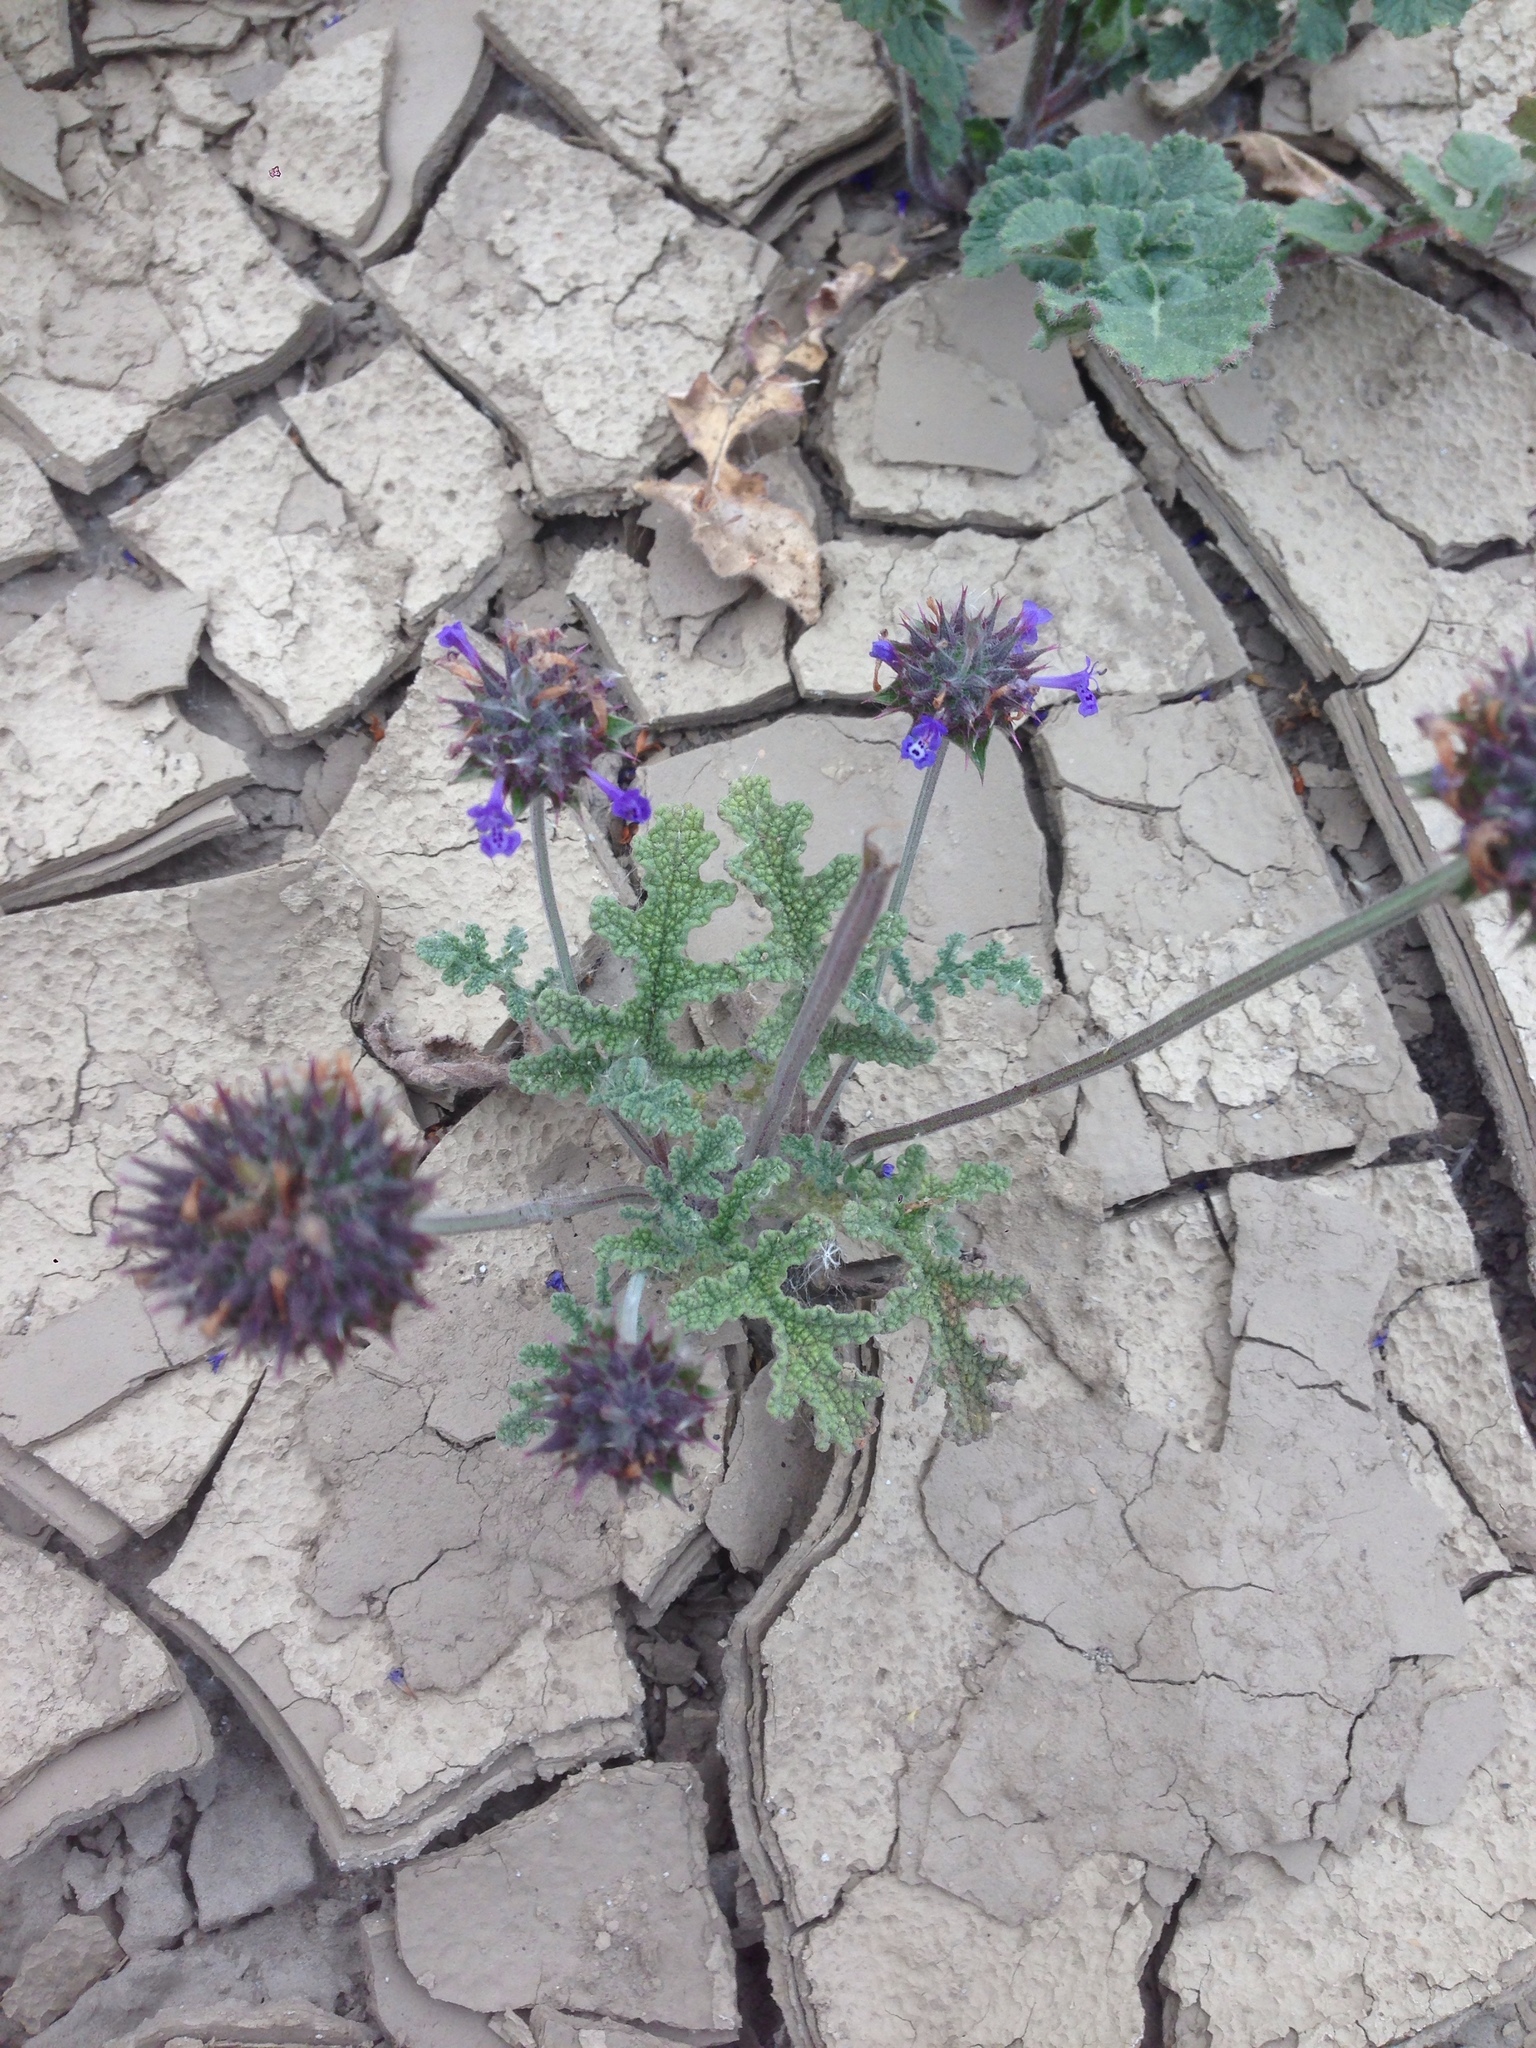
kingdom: Plantae
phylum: Tracheophyta
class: Magnoliopsida
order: Lamiales
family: Lamiaceae
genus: Salvia
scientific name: Salvia columbariae
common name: Chia
